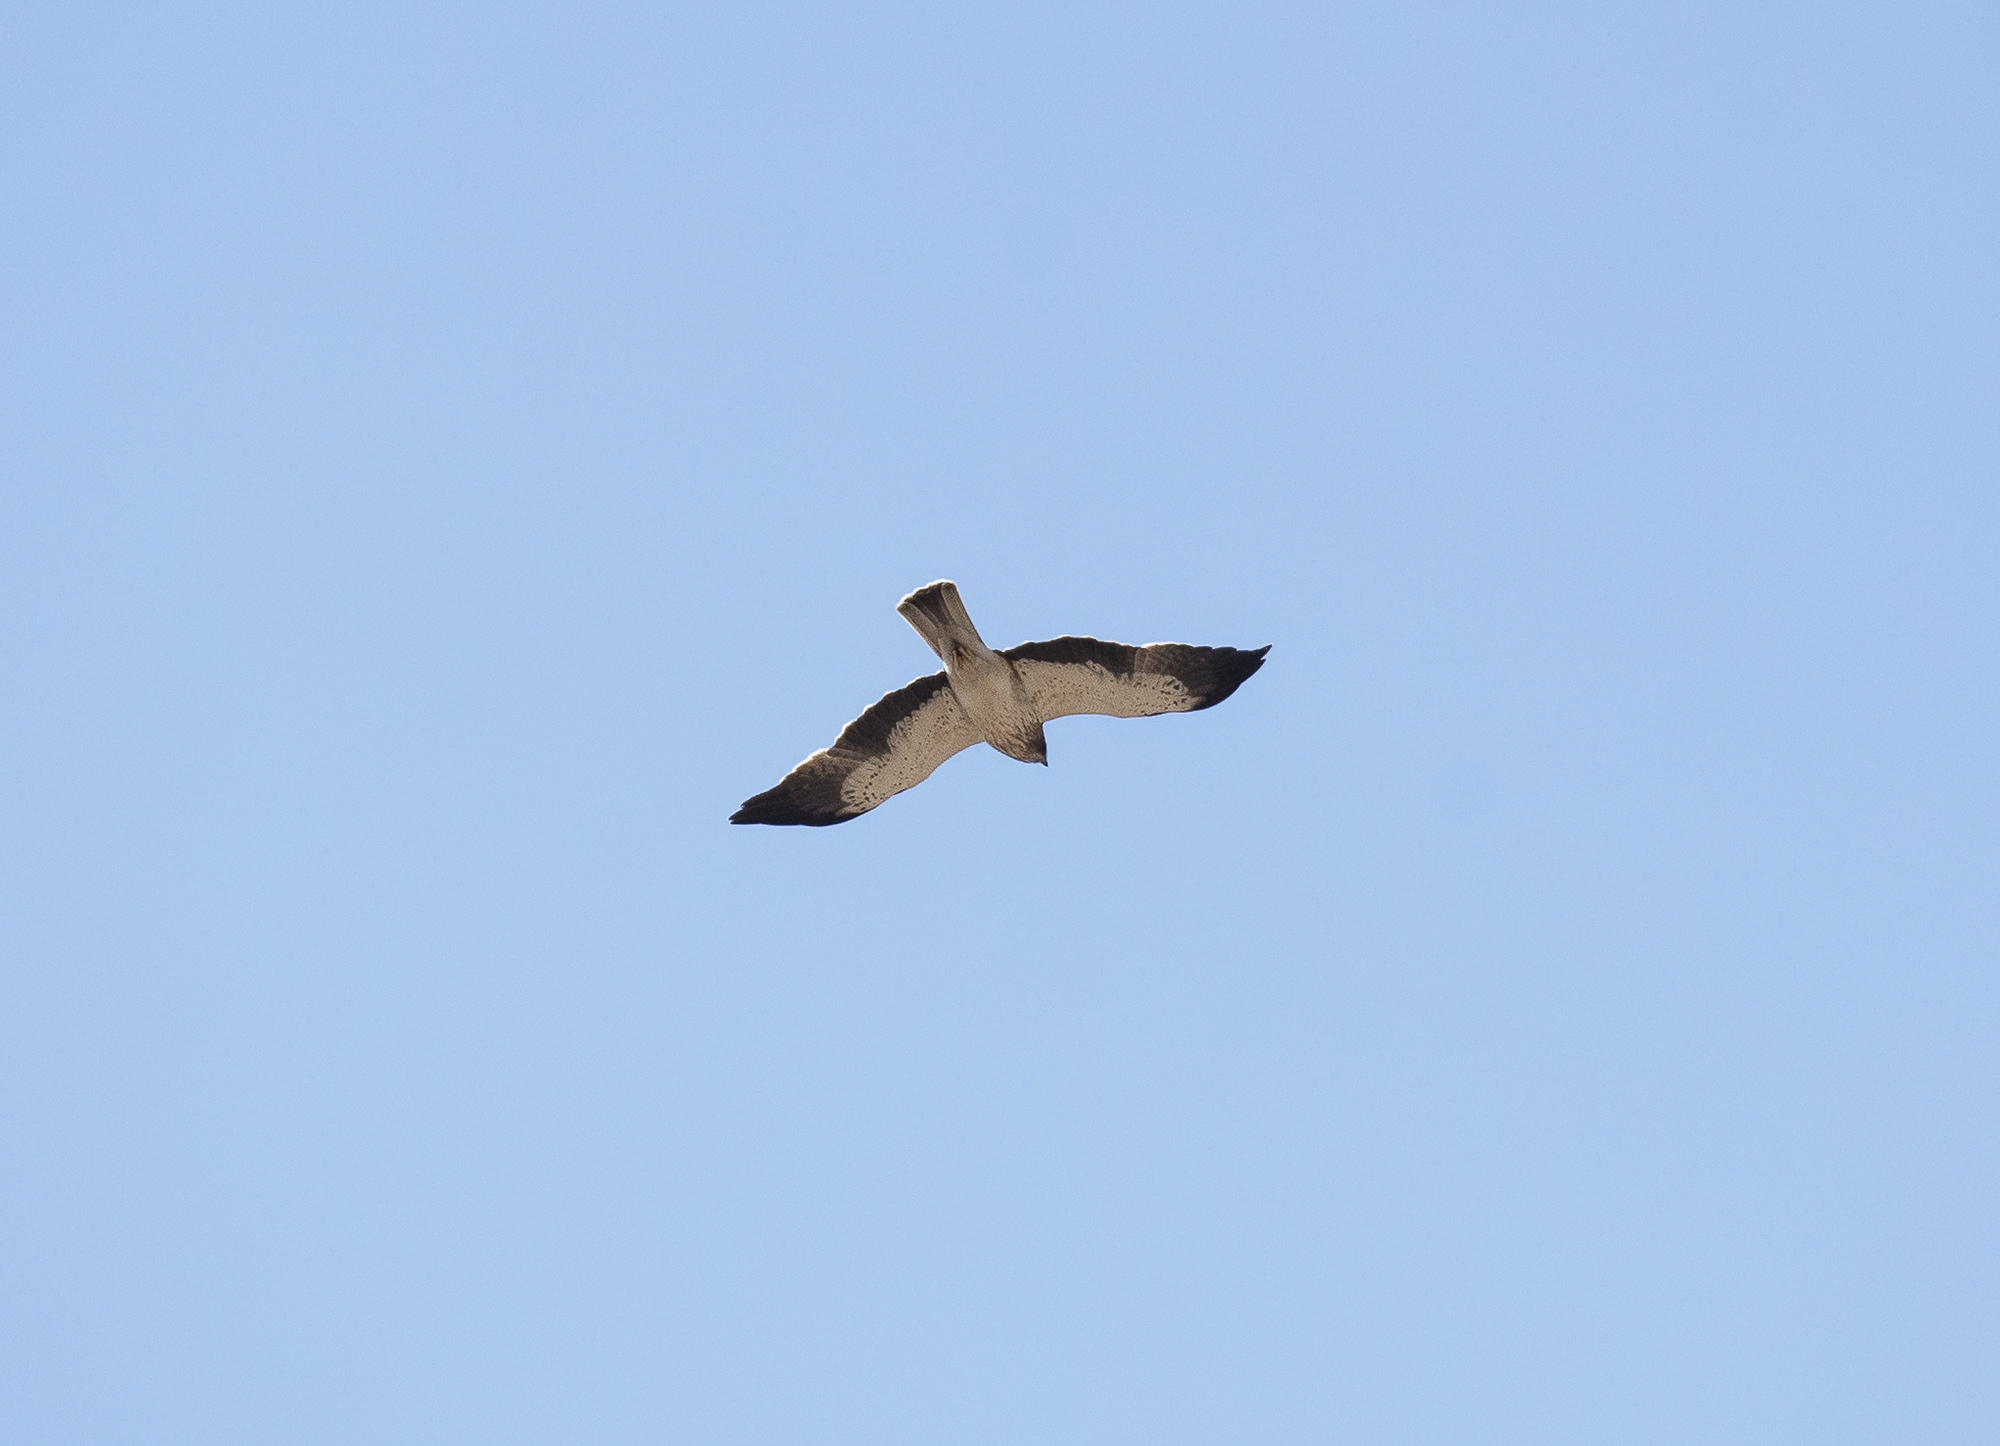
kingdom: Animalia
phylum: Chordata
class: Aves
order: Accipitriformes
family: Accipitridae
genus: Hieraaetus
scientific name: Hieraaetus pennatus
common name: Booted eagle
